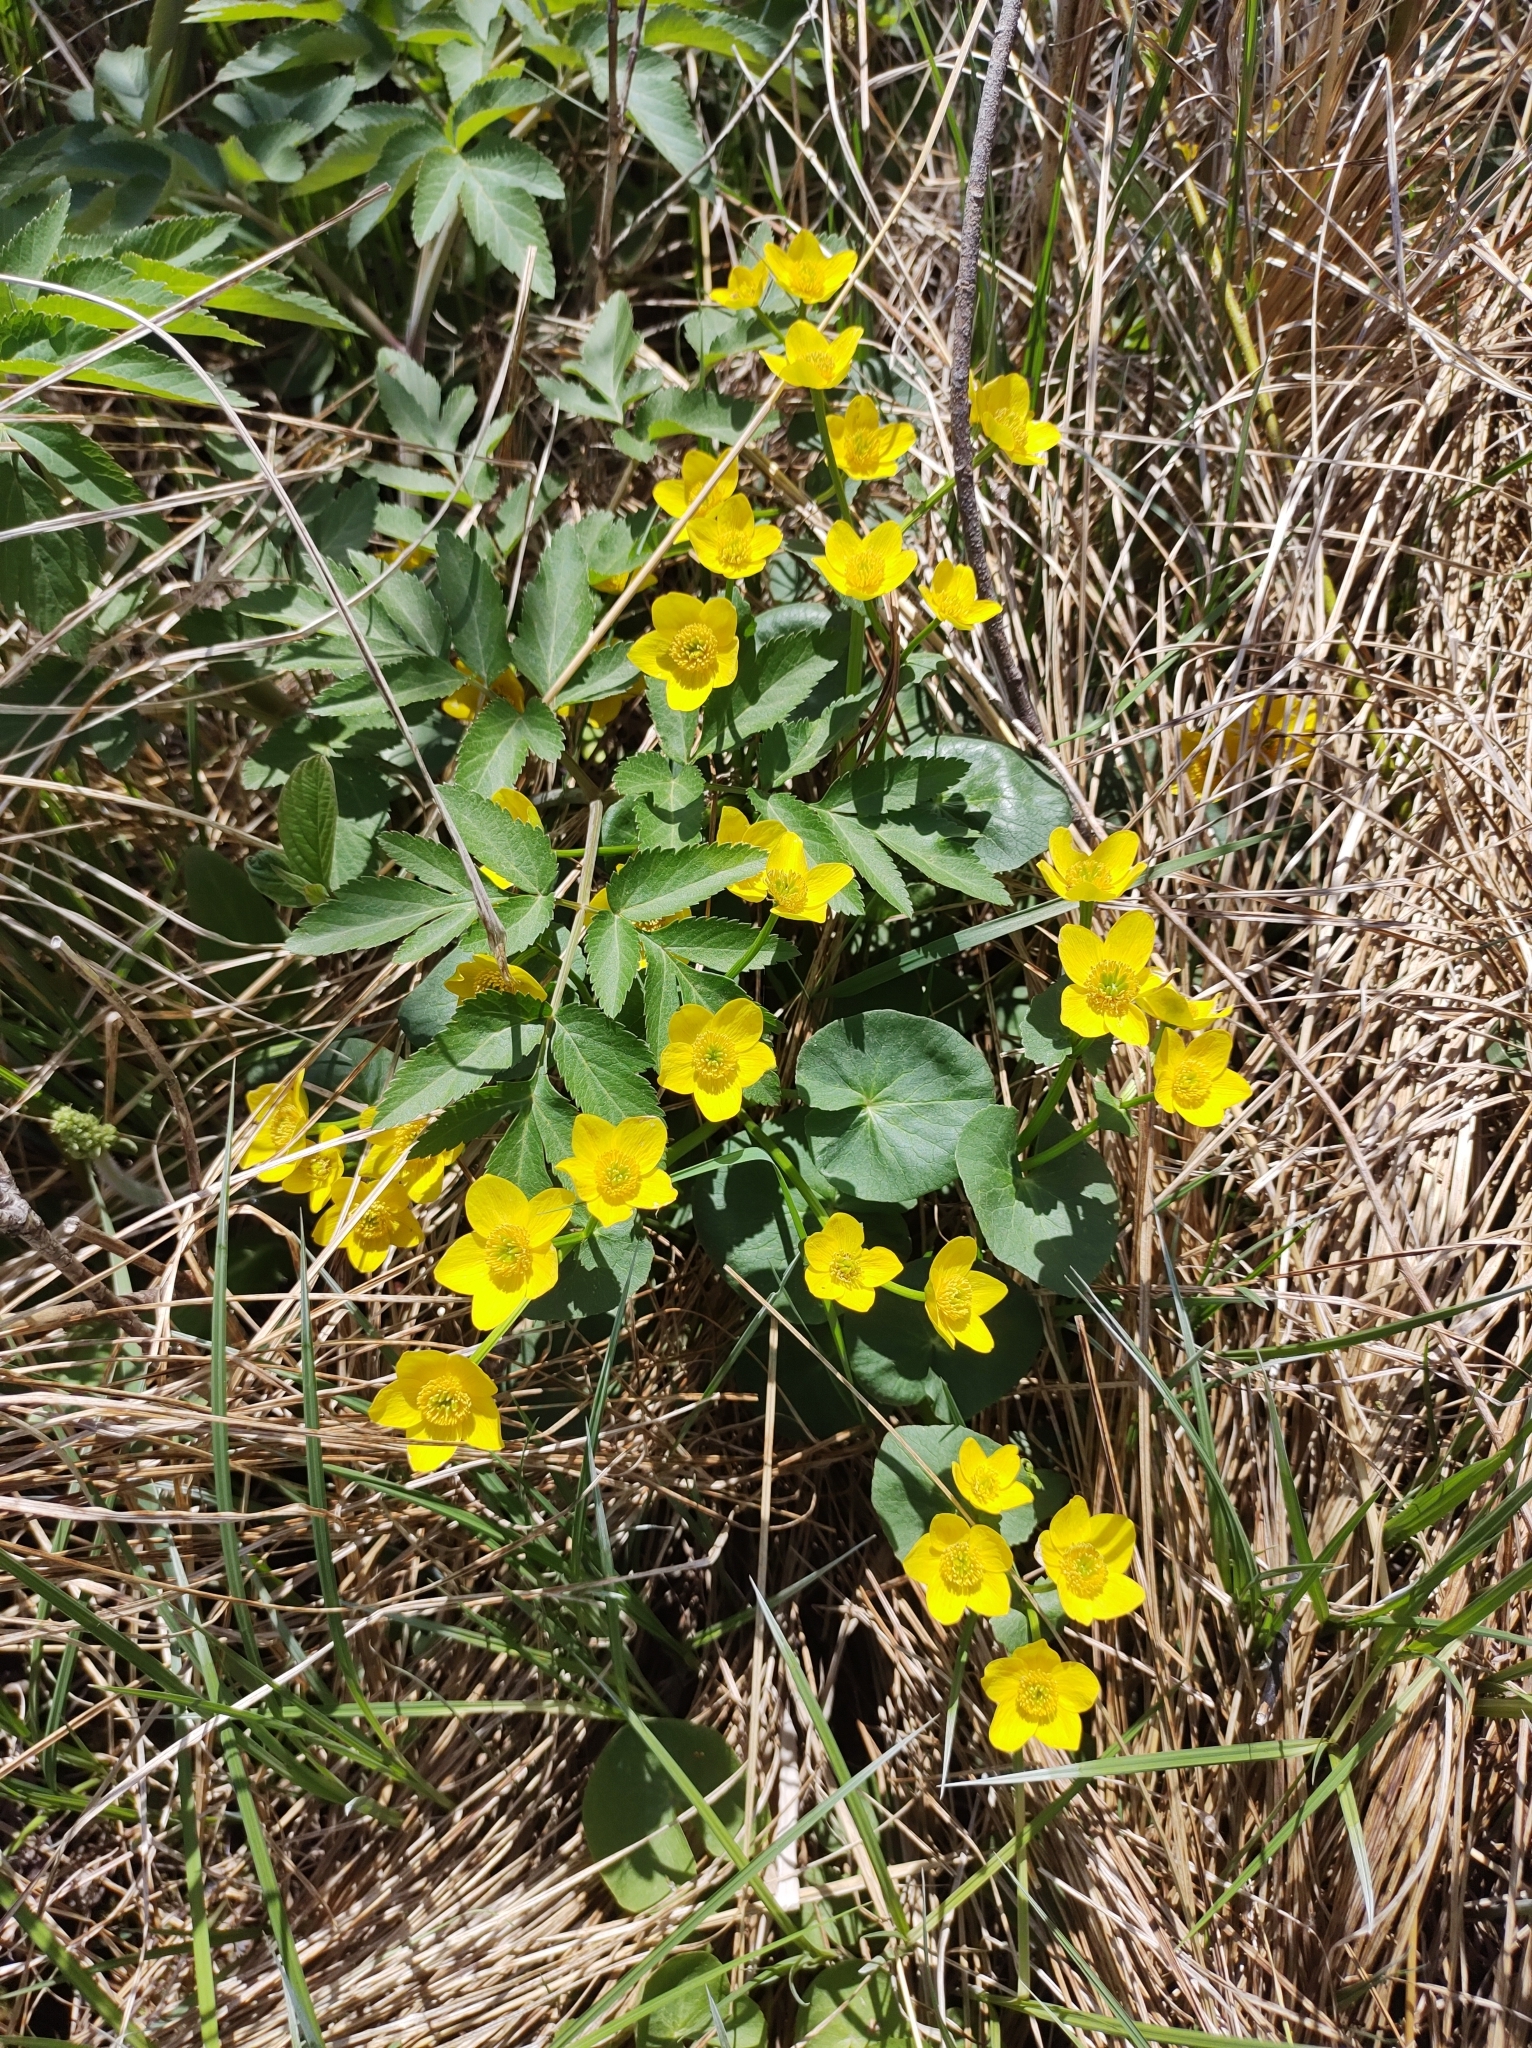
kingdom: Plantae
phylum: Tracheophyta
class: Magnoliopsida
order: Ranunculales
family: Ranunculaceae
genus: Caltha
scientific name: Caltha palustris
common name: Marsh marigold
